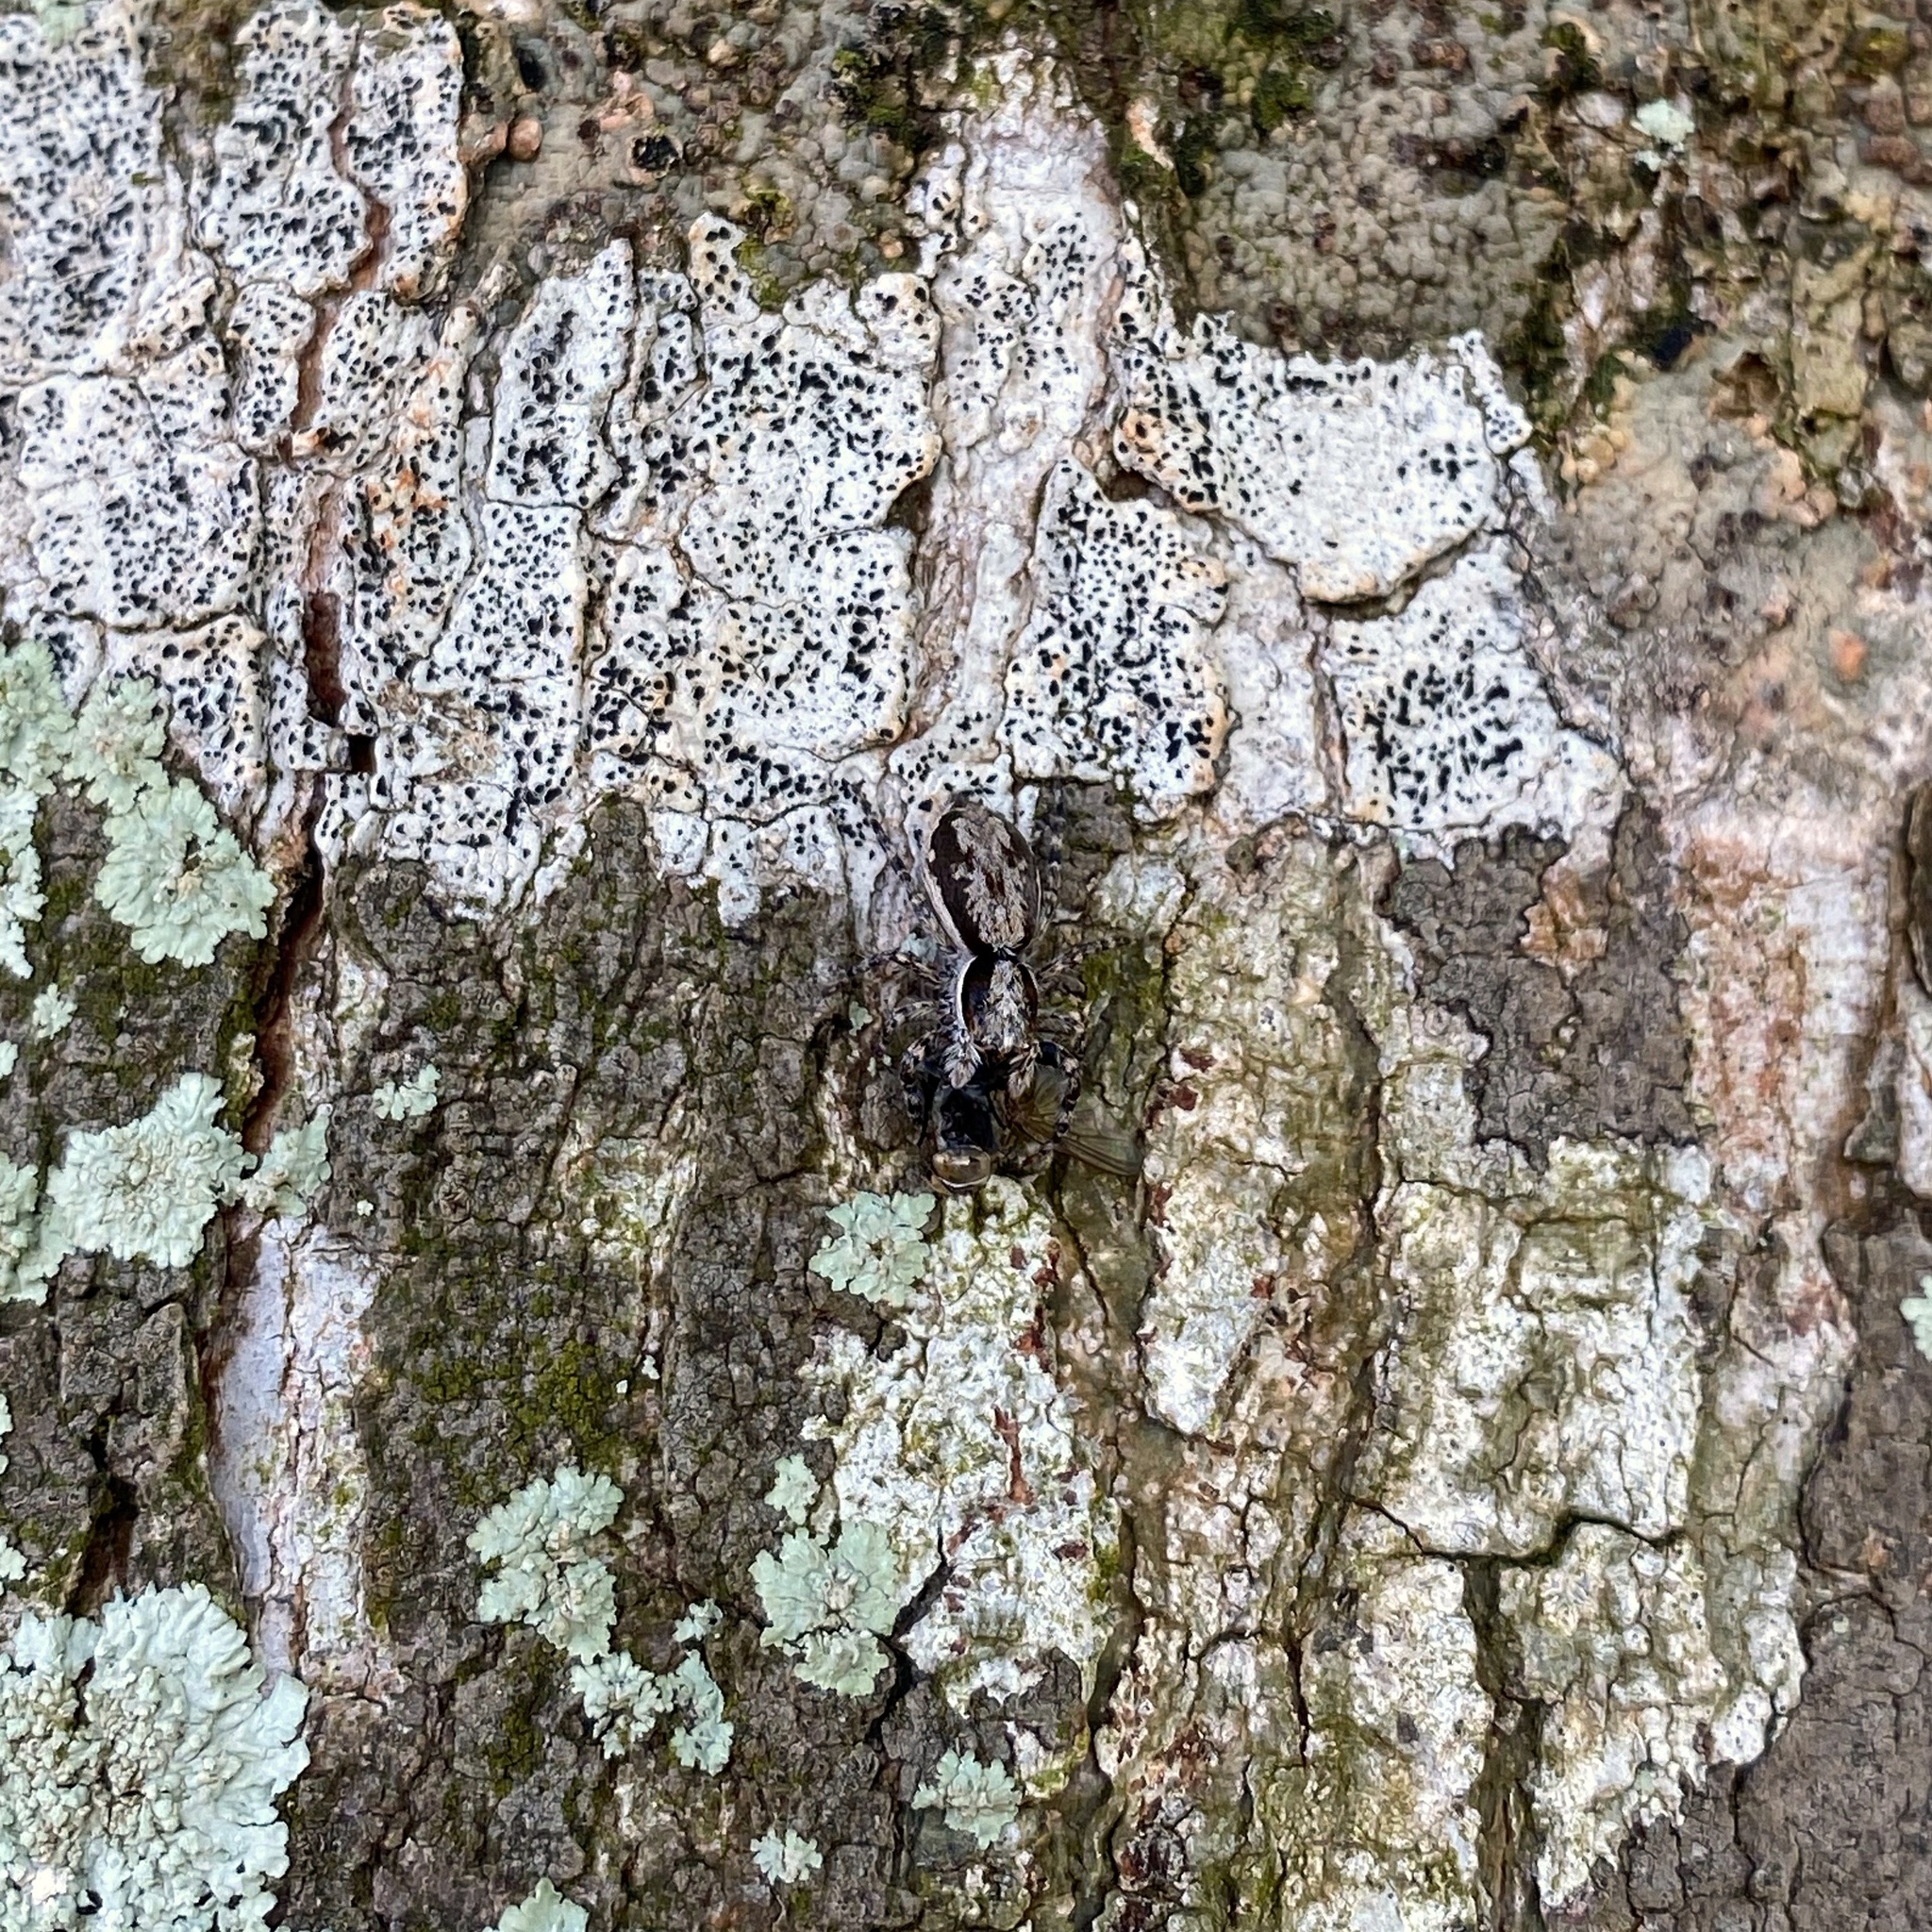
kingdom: Animalia
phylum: Arthropoda
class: Arachnida
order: Araneae
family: Salticidae
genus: Menemerus
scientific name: Menemerus bivittatus
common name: Gray wall jumper
